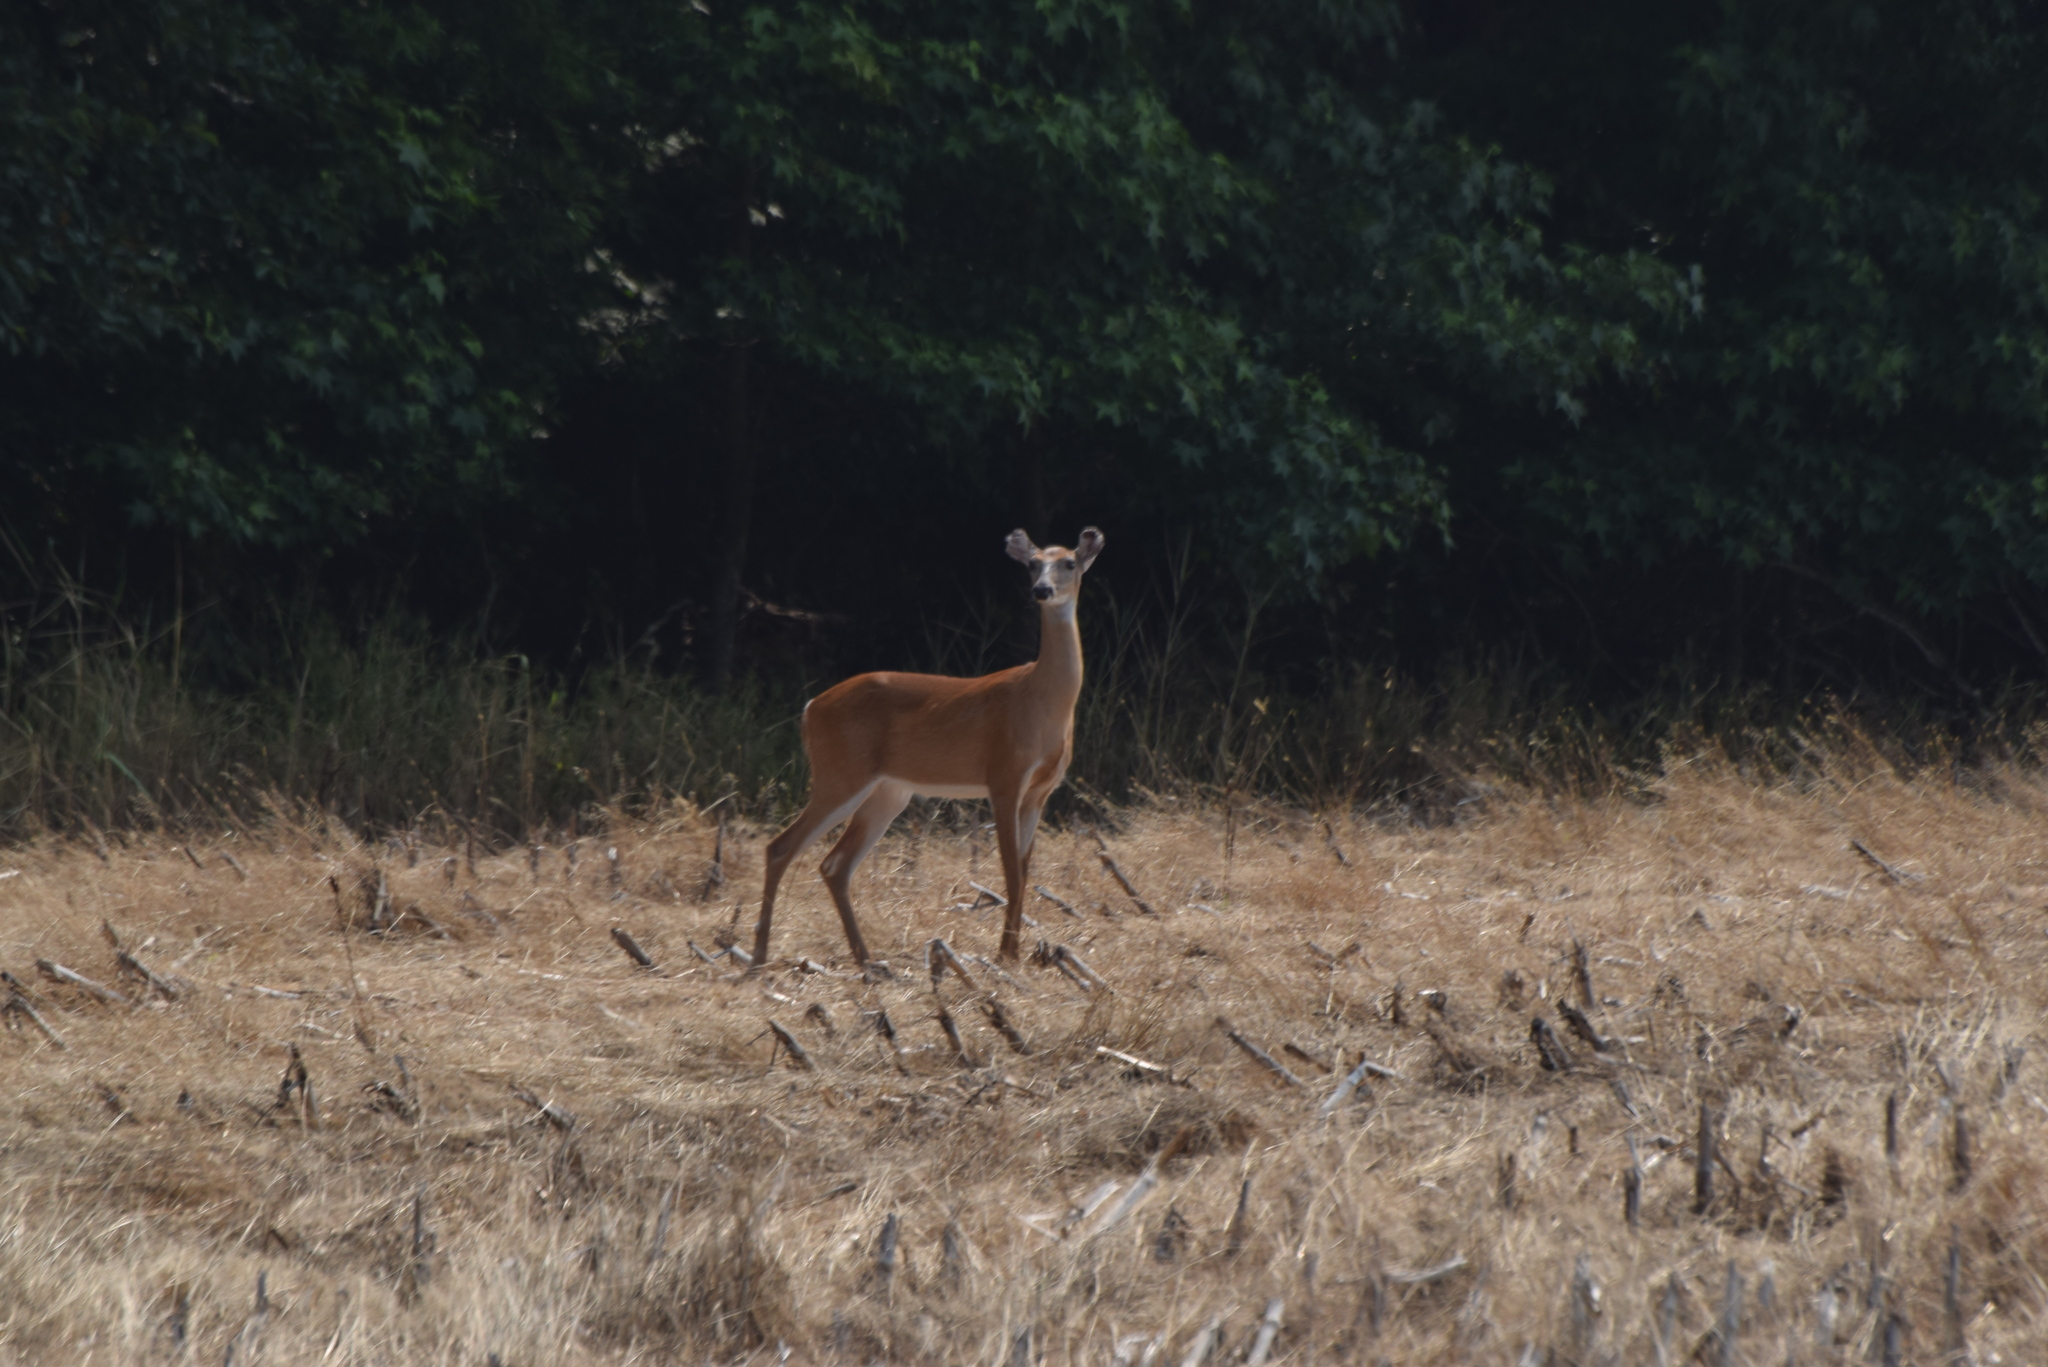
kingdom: Animalia
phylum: Chordata
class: Mammalia
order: Artiodactyla
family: Cervidae
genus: Odocoileus
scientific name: Odocoileus virginianus
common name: White-tailed deer
